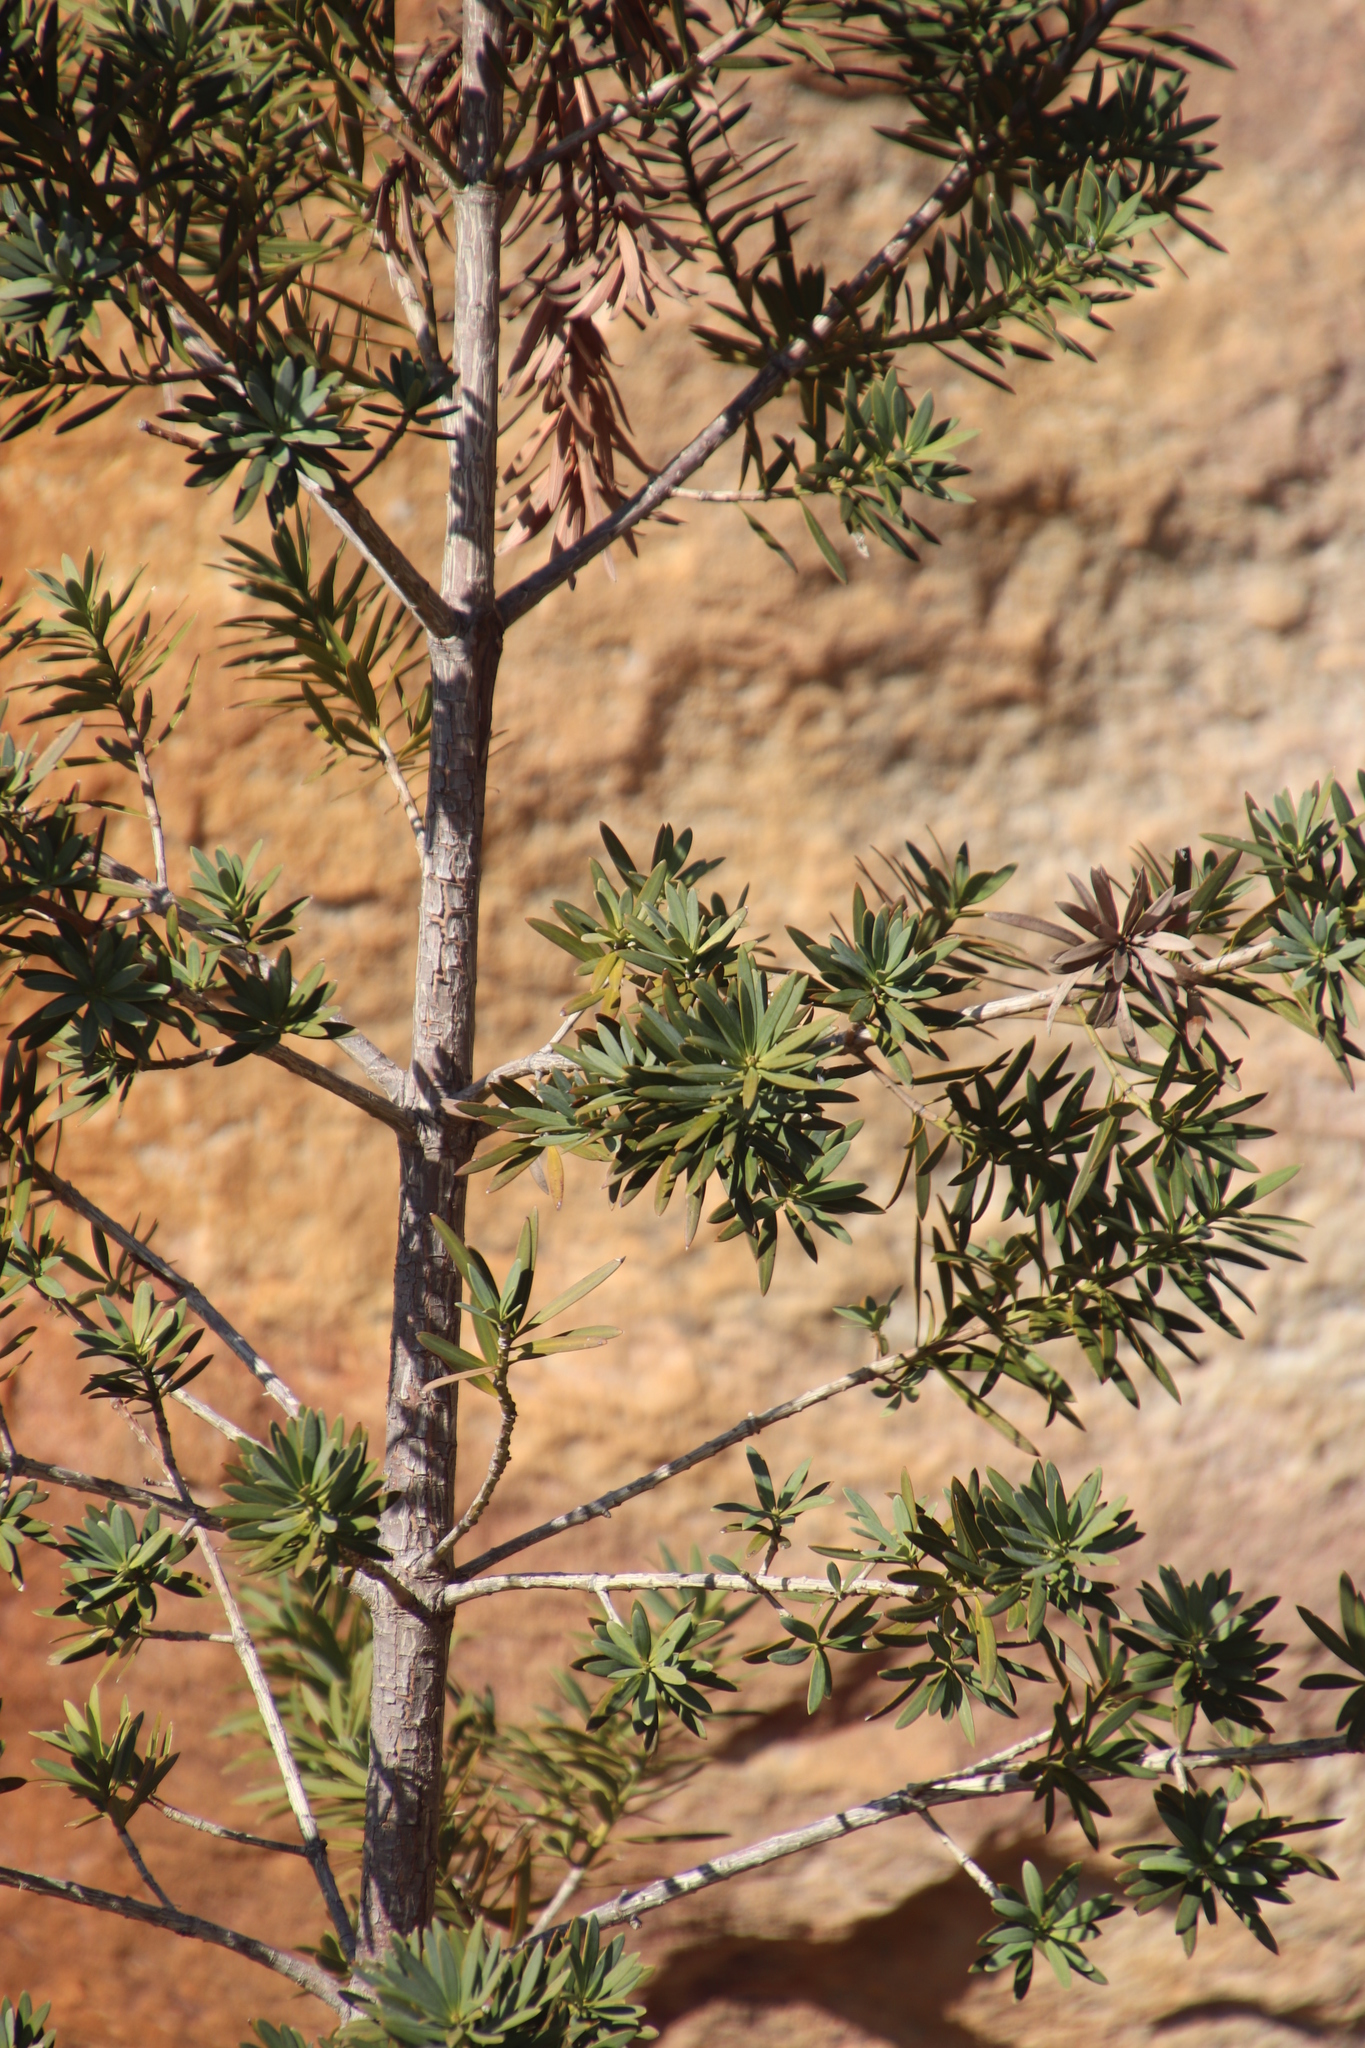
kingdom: Plantae
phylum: Tracheophyta
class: Pinopsida
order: Pinales
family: Podocarpaceae
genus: Podocarpus
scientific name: Podocarpus elongatus
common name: Breede river yellowwood
